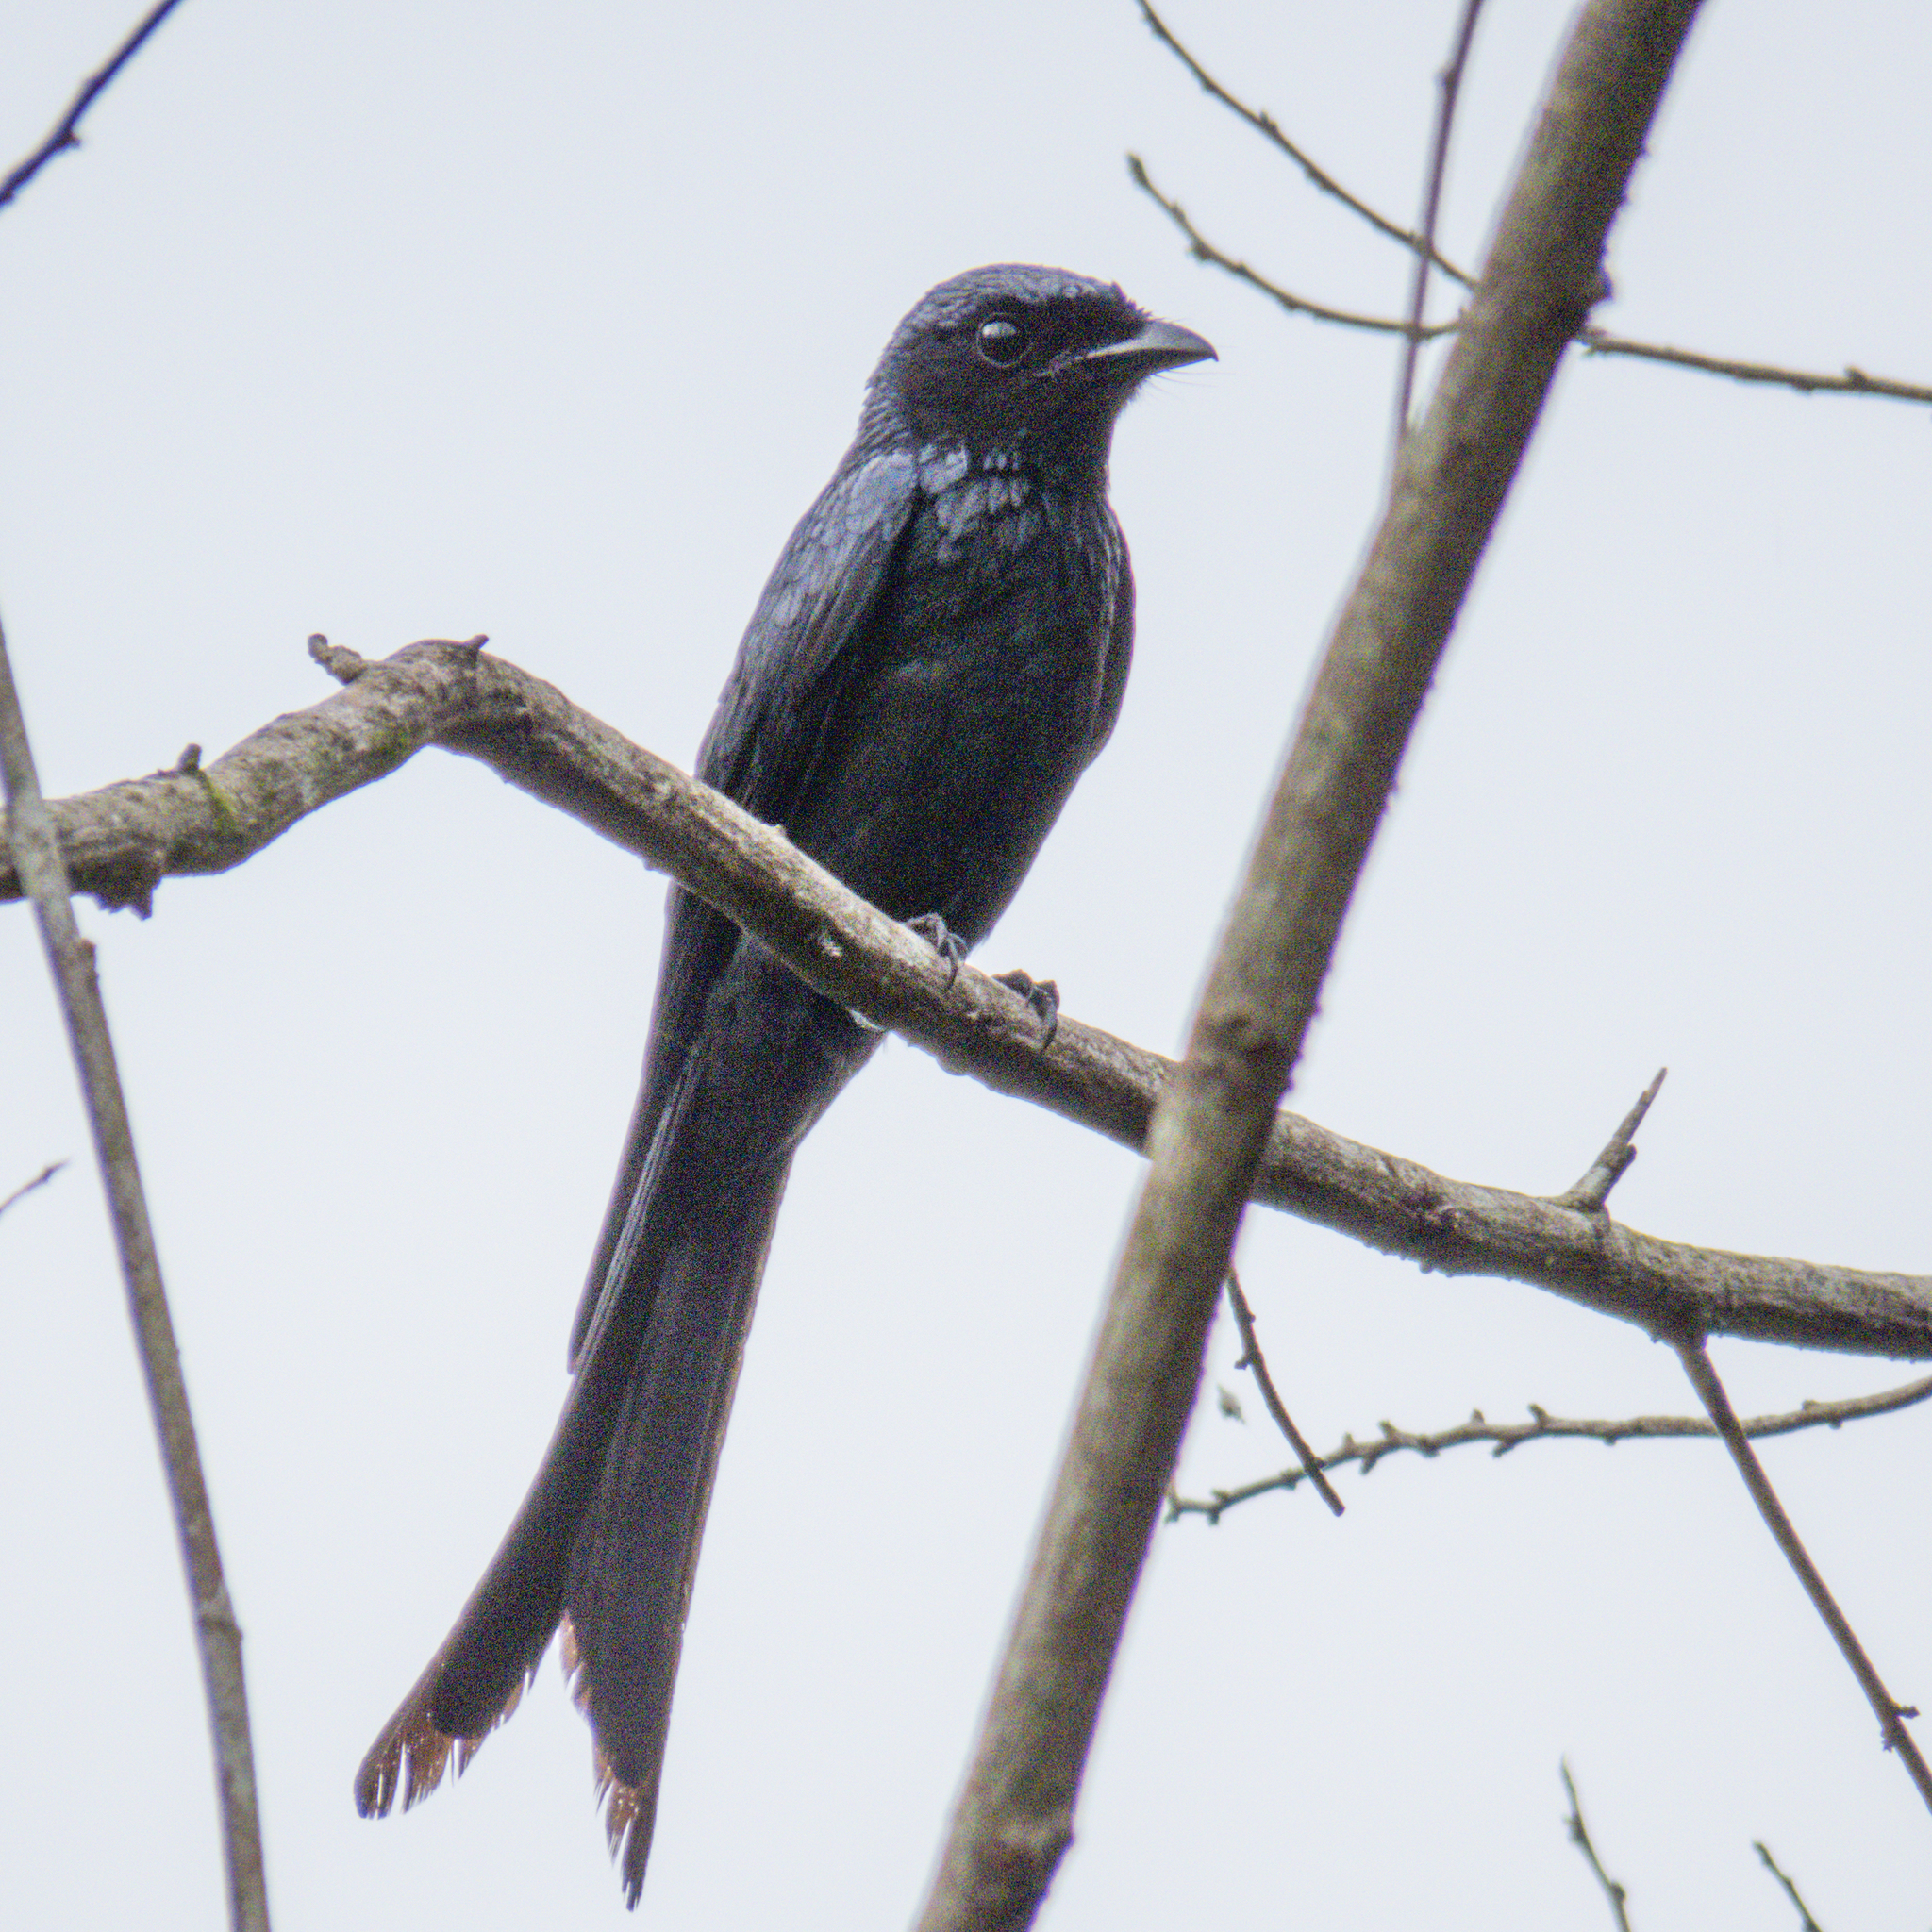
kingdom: Animalia
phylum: Chordata
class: Aves
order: Passeriformes
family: Dicruridae
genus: Dicrurus
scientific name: Dicrurus macrocercus
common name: Black drongo
